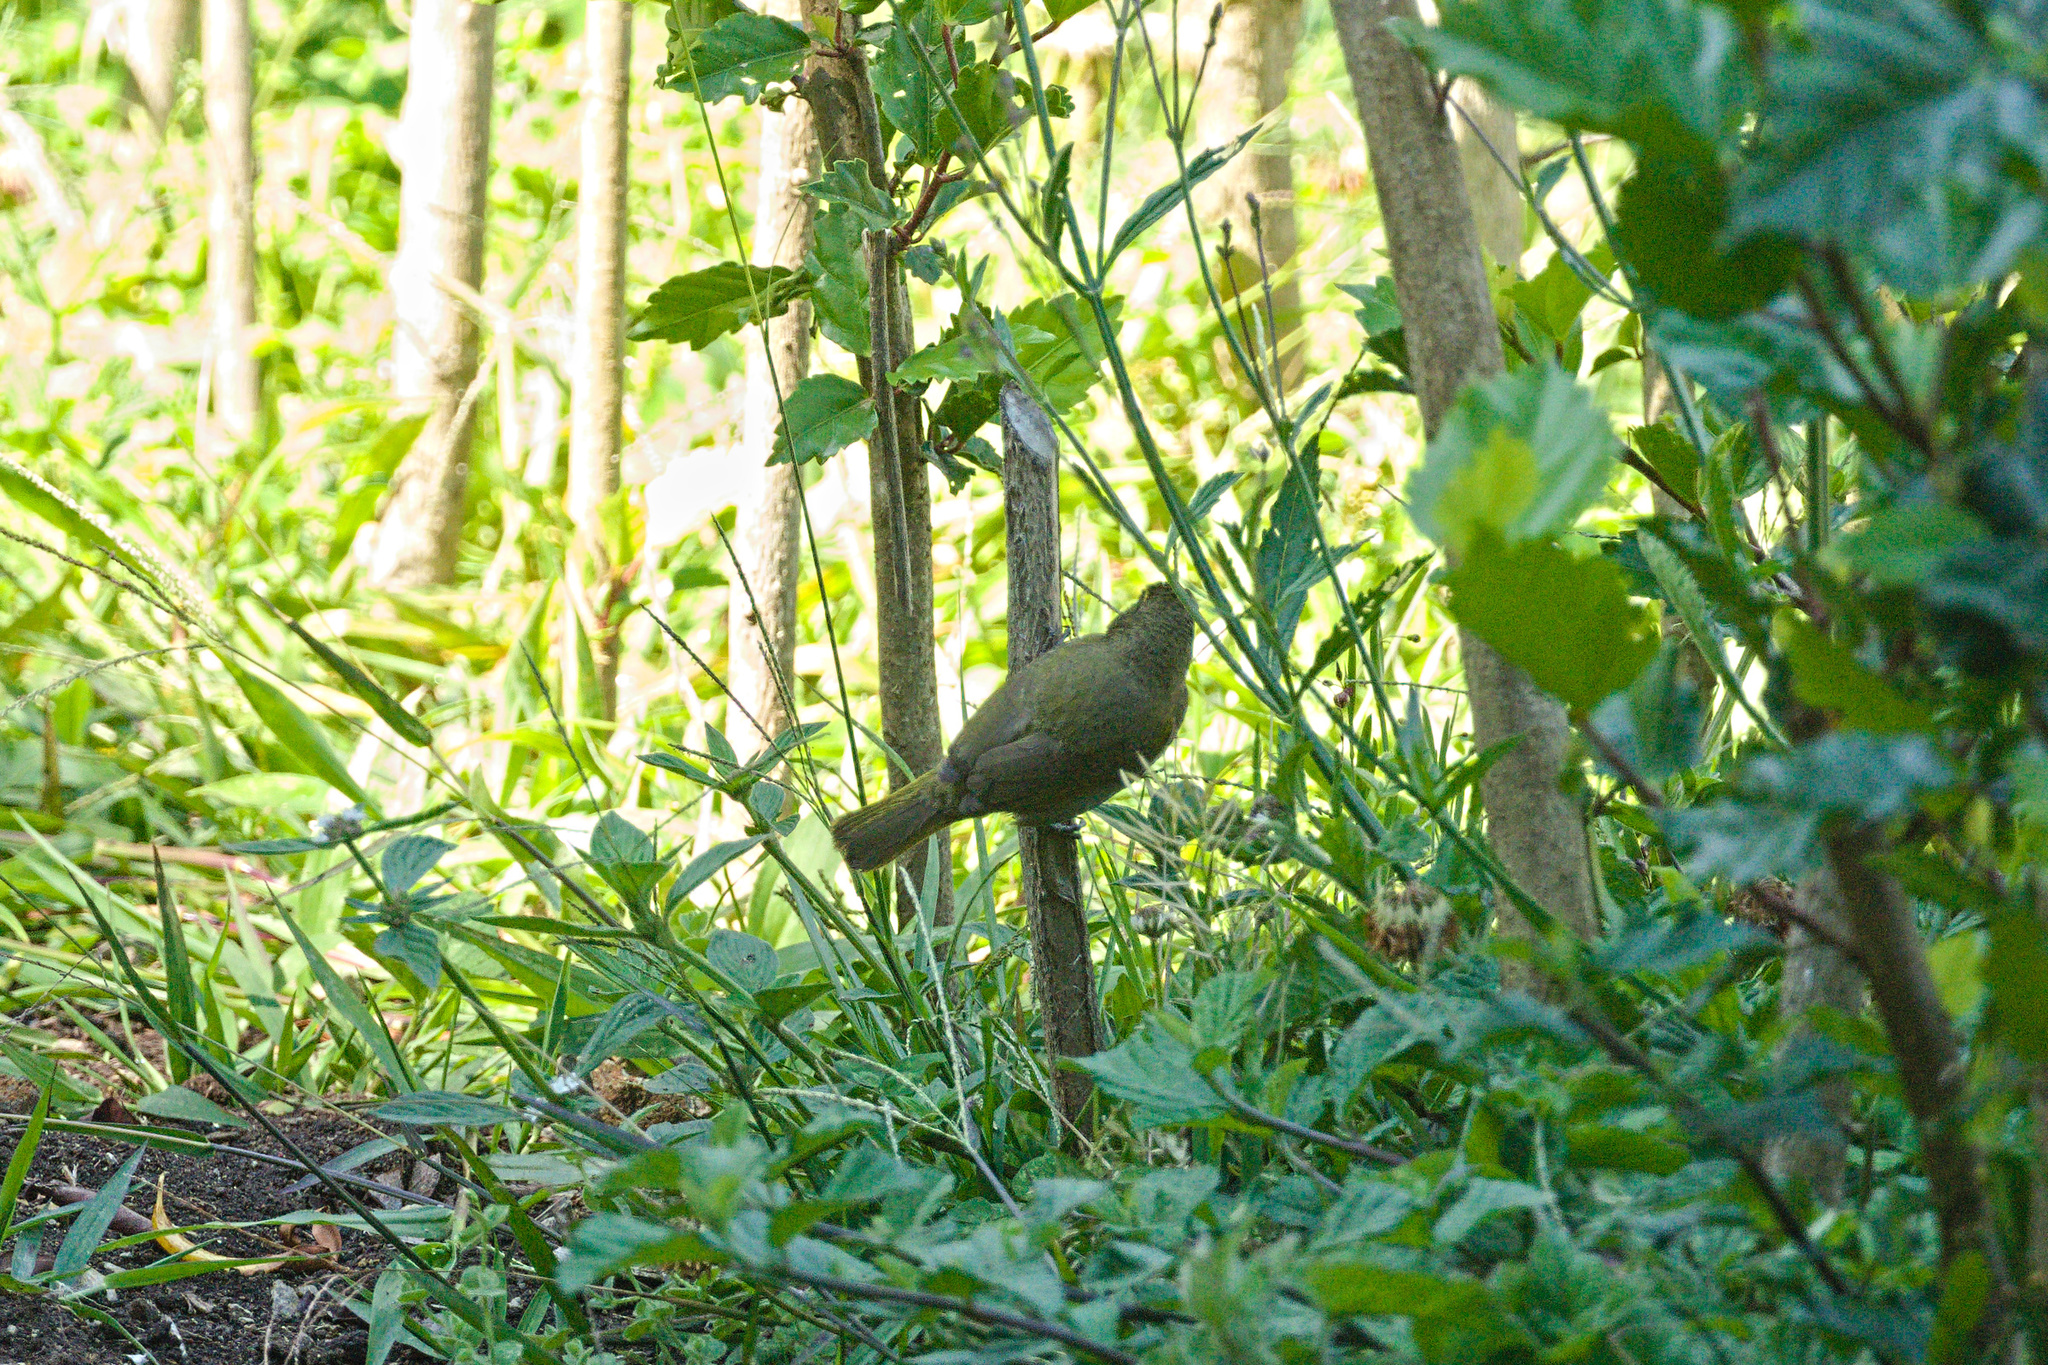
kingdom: Animalia
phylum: Chordata
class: Aves
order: Passeriformes
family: Thraupidae
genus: Tiaris
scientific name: Tiaris olivaceus
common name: Yellow-faced grassquit
